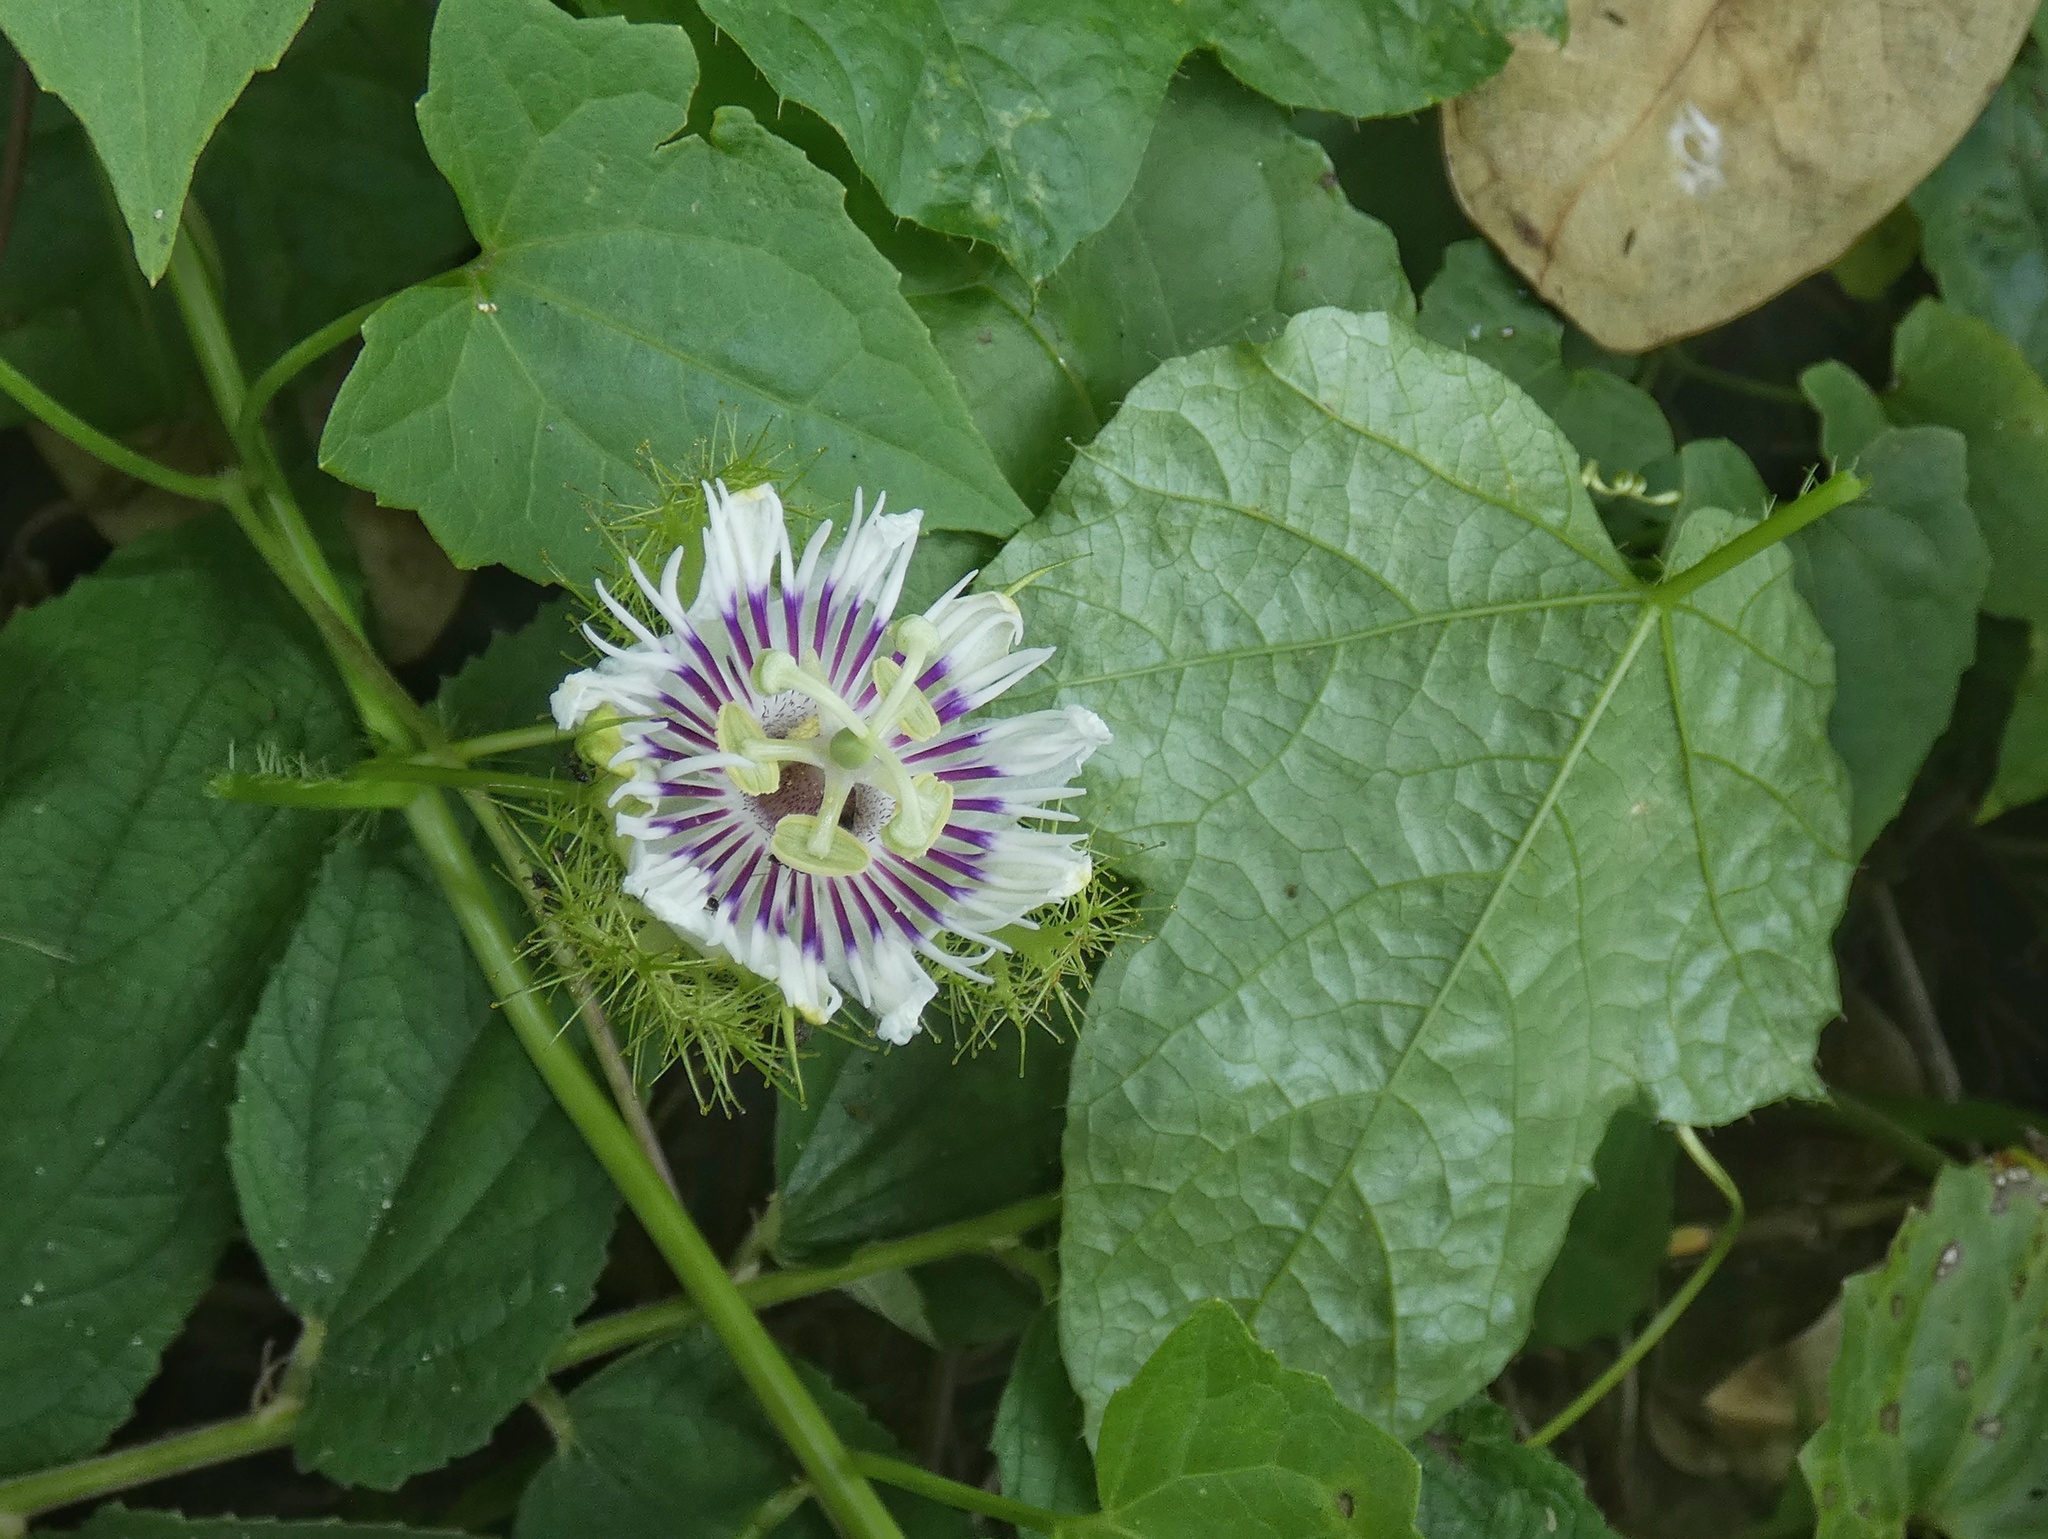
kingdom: Plantae
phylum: Tracheophyta
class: Magnoliopsida
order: Malpighiales
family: Passifloraceae
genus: Passiflora
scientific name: Passiflora vesicaria
